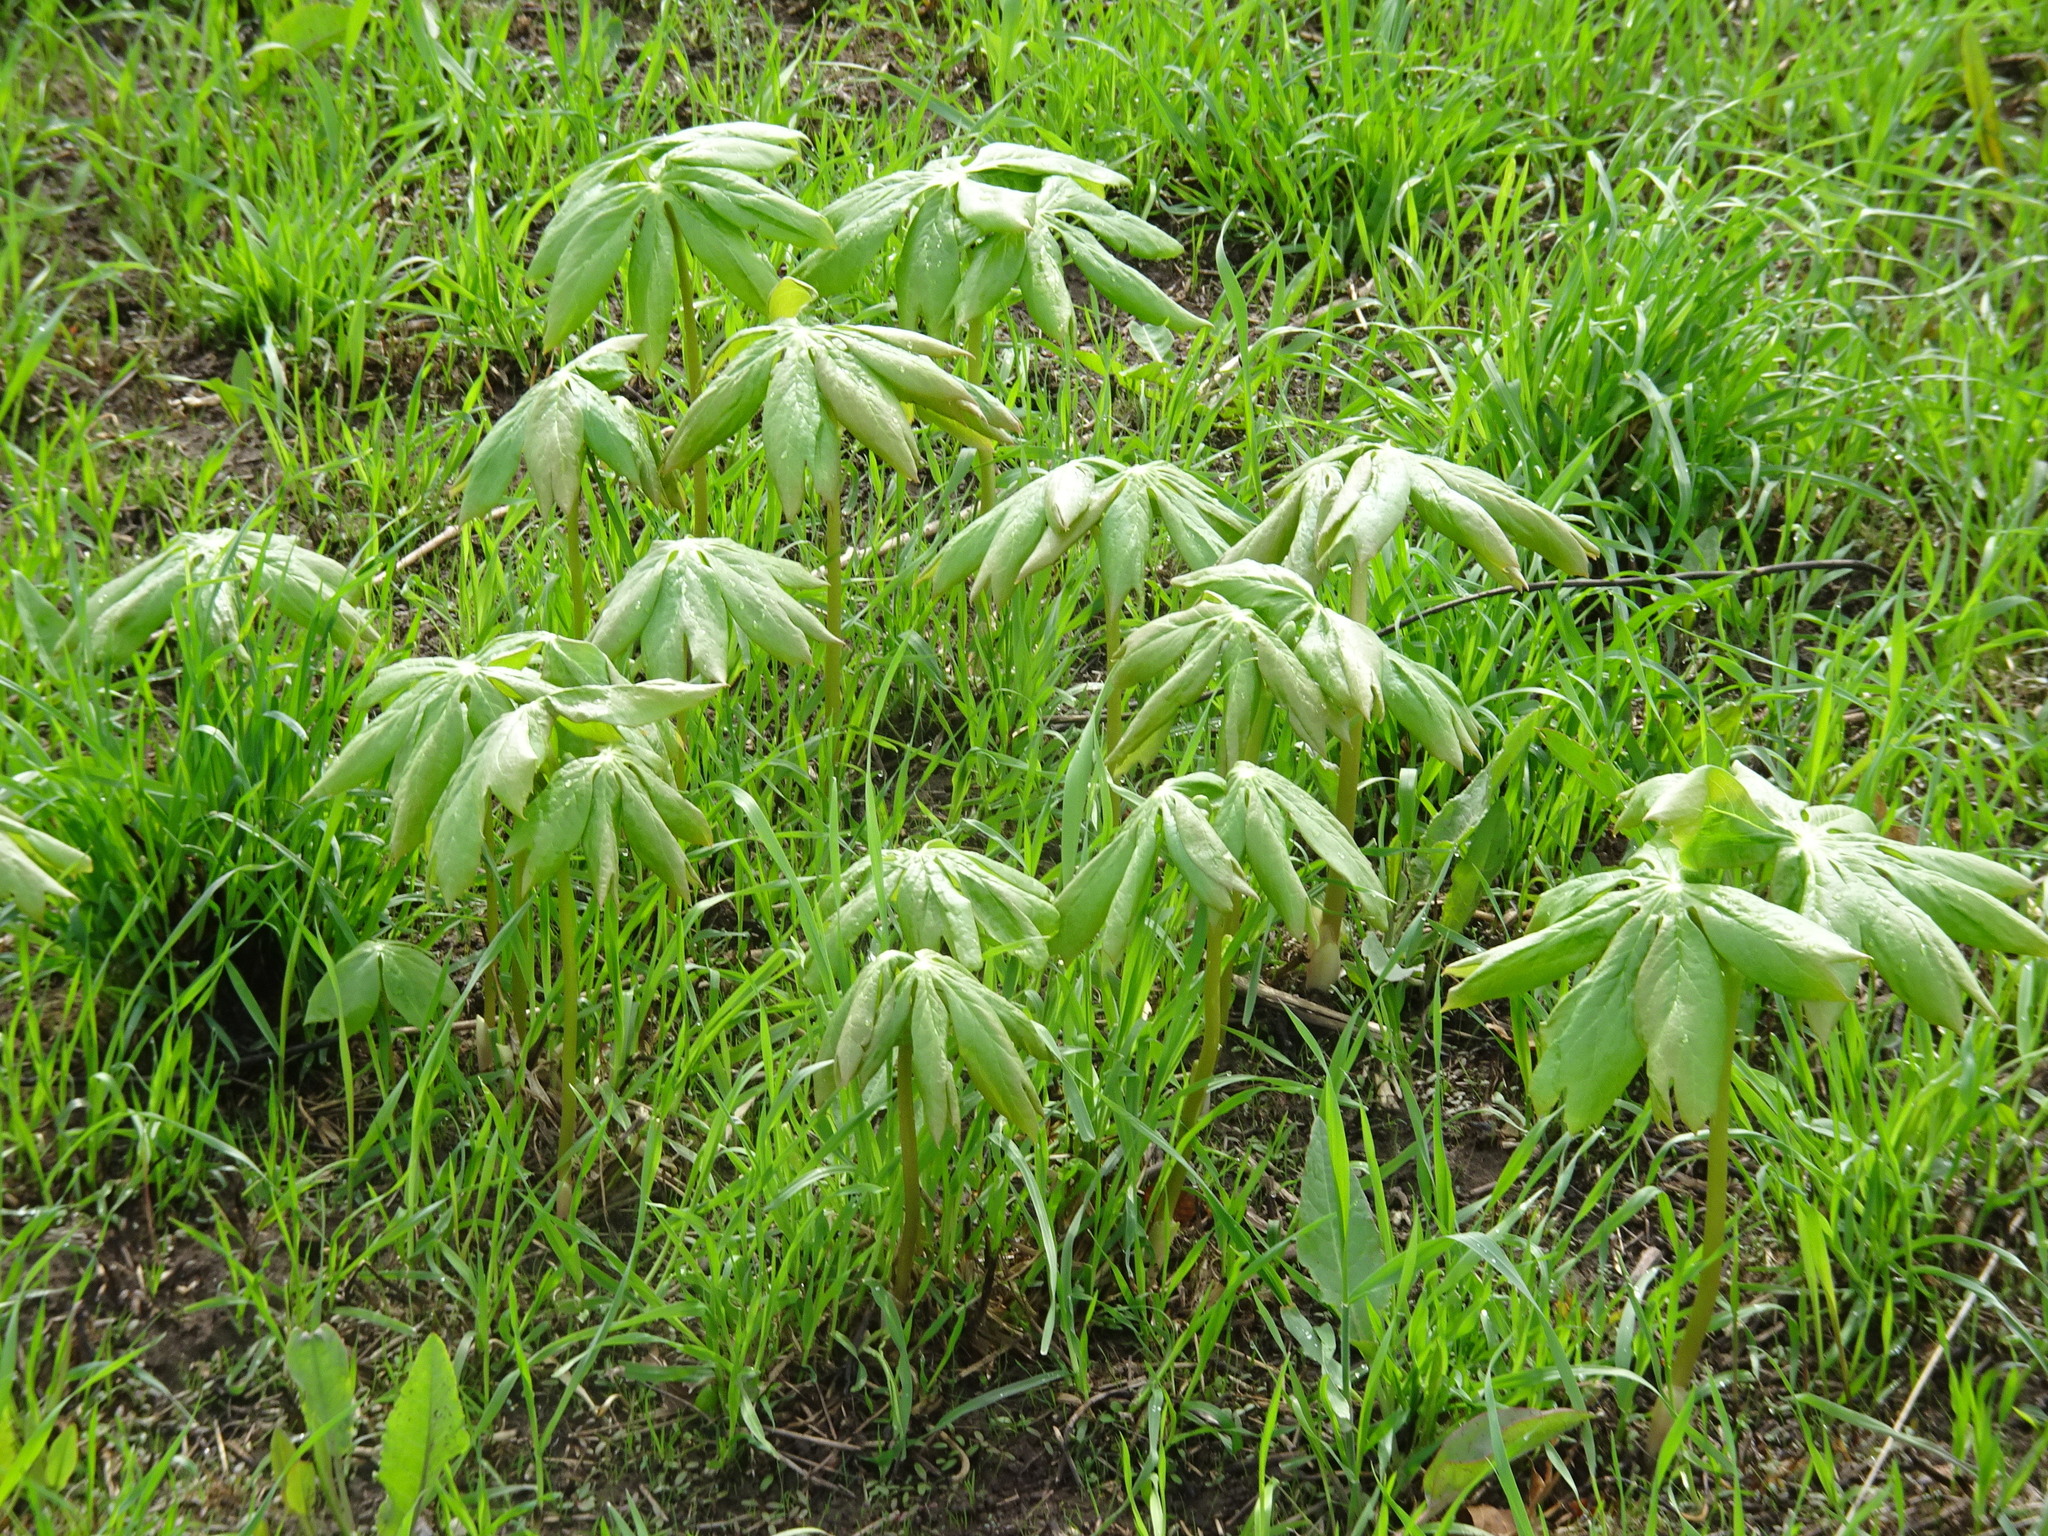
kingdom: Plantae
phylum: Tracheophyta
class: Magnoliopsida
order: Ranunculales
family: Berberidaceae
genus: Podophyllum
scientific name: Podophyllum peltatum
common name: Wild mandrake
